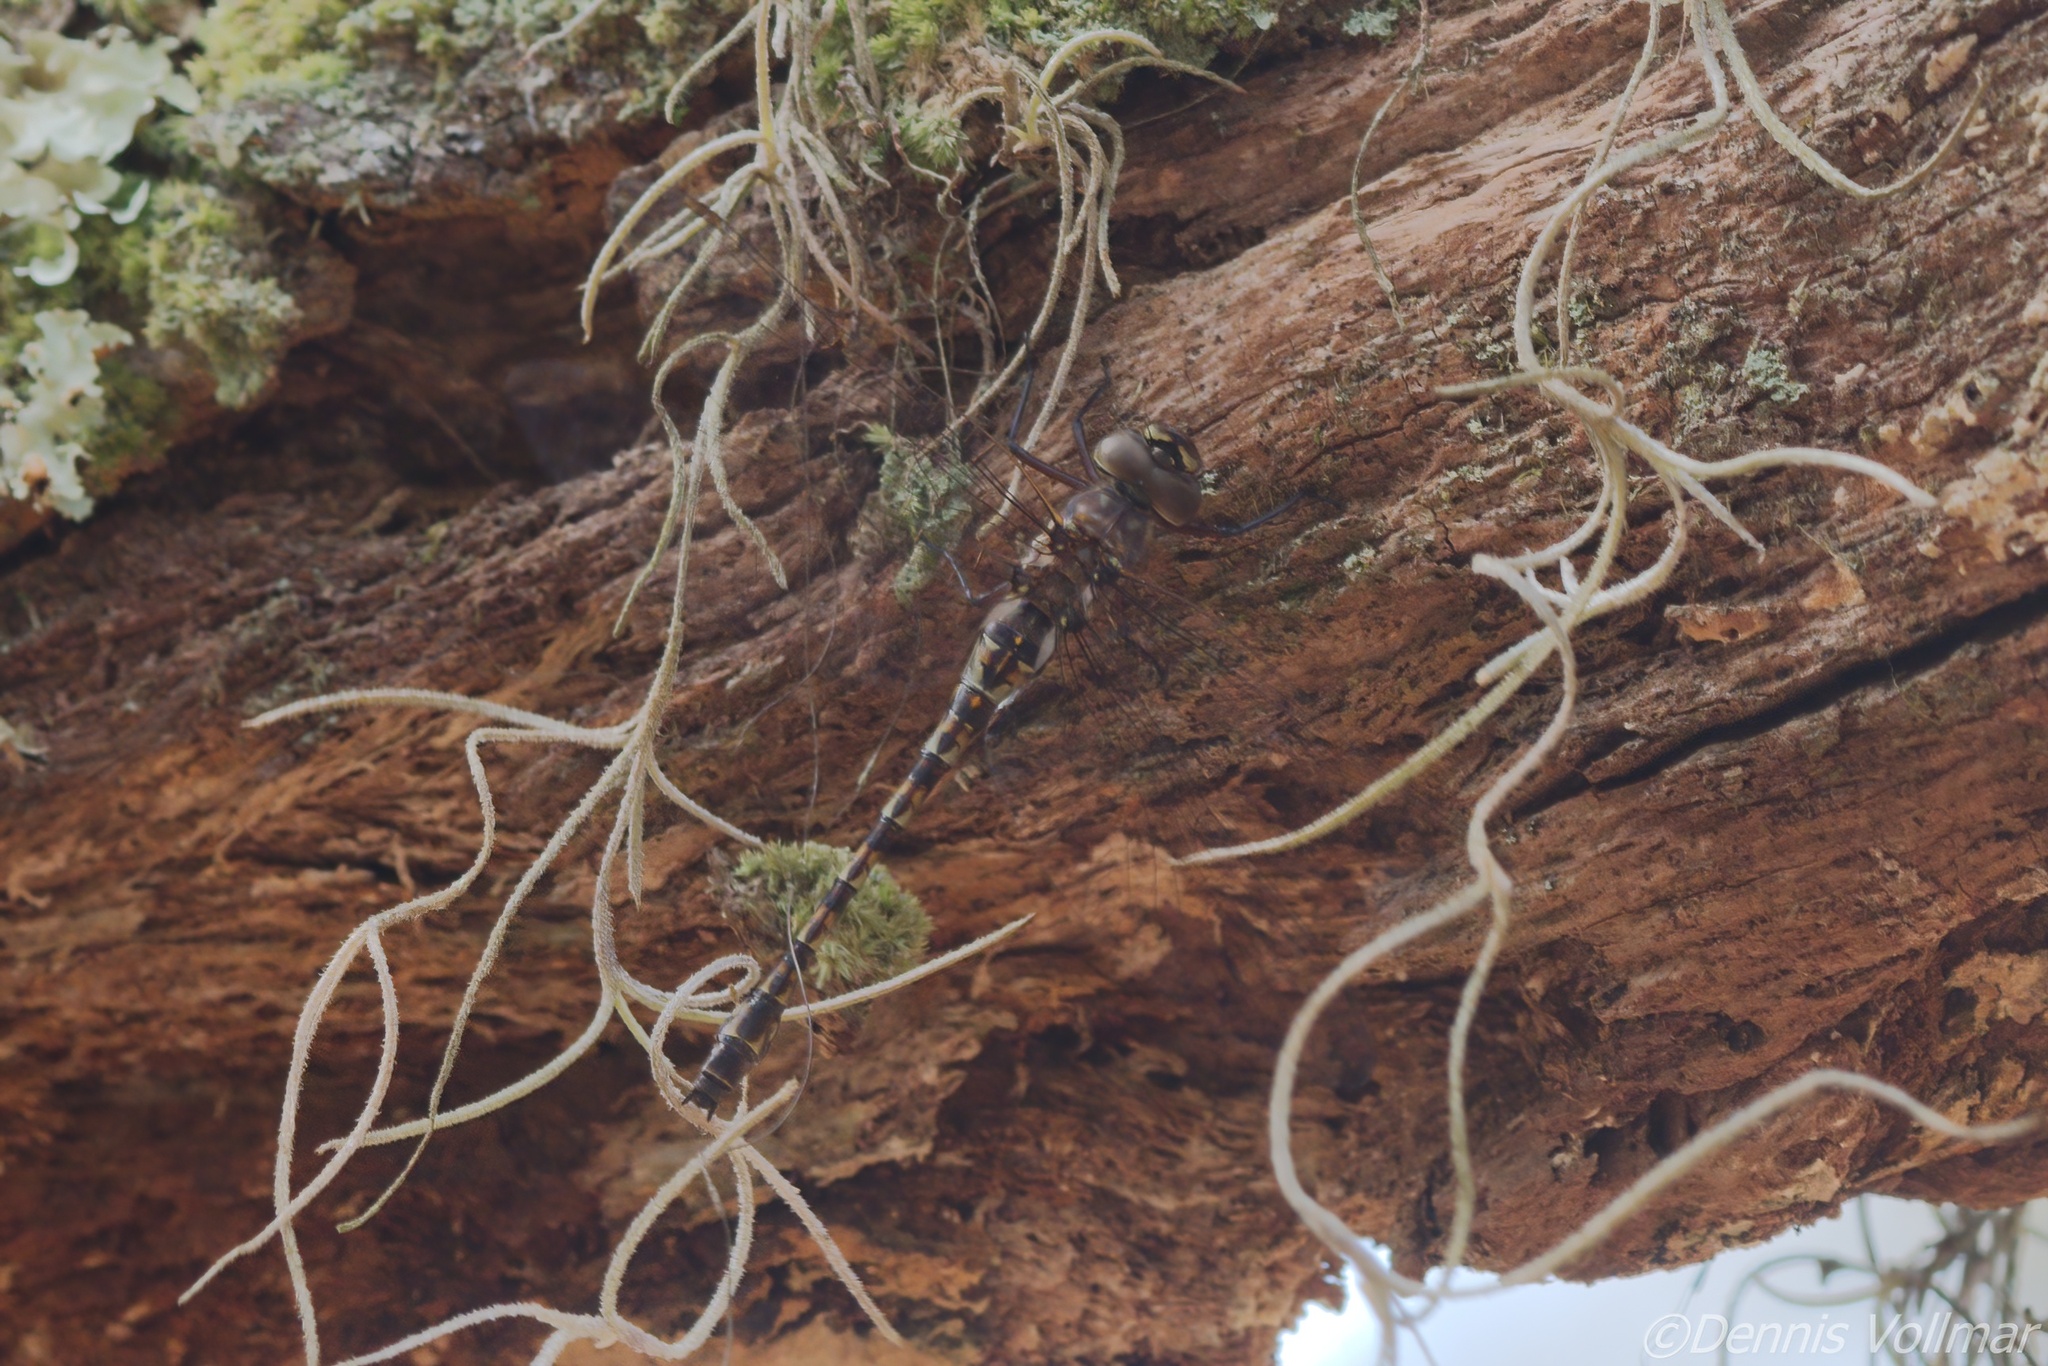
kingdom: Animalia
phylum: Arthropoda
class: Insecta
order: Odonata
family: Aeshnidae
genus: Gomphaeschna
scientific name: Gomphaeschna antilope
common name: Taper-tailed darner
